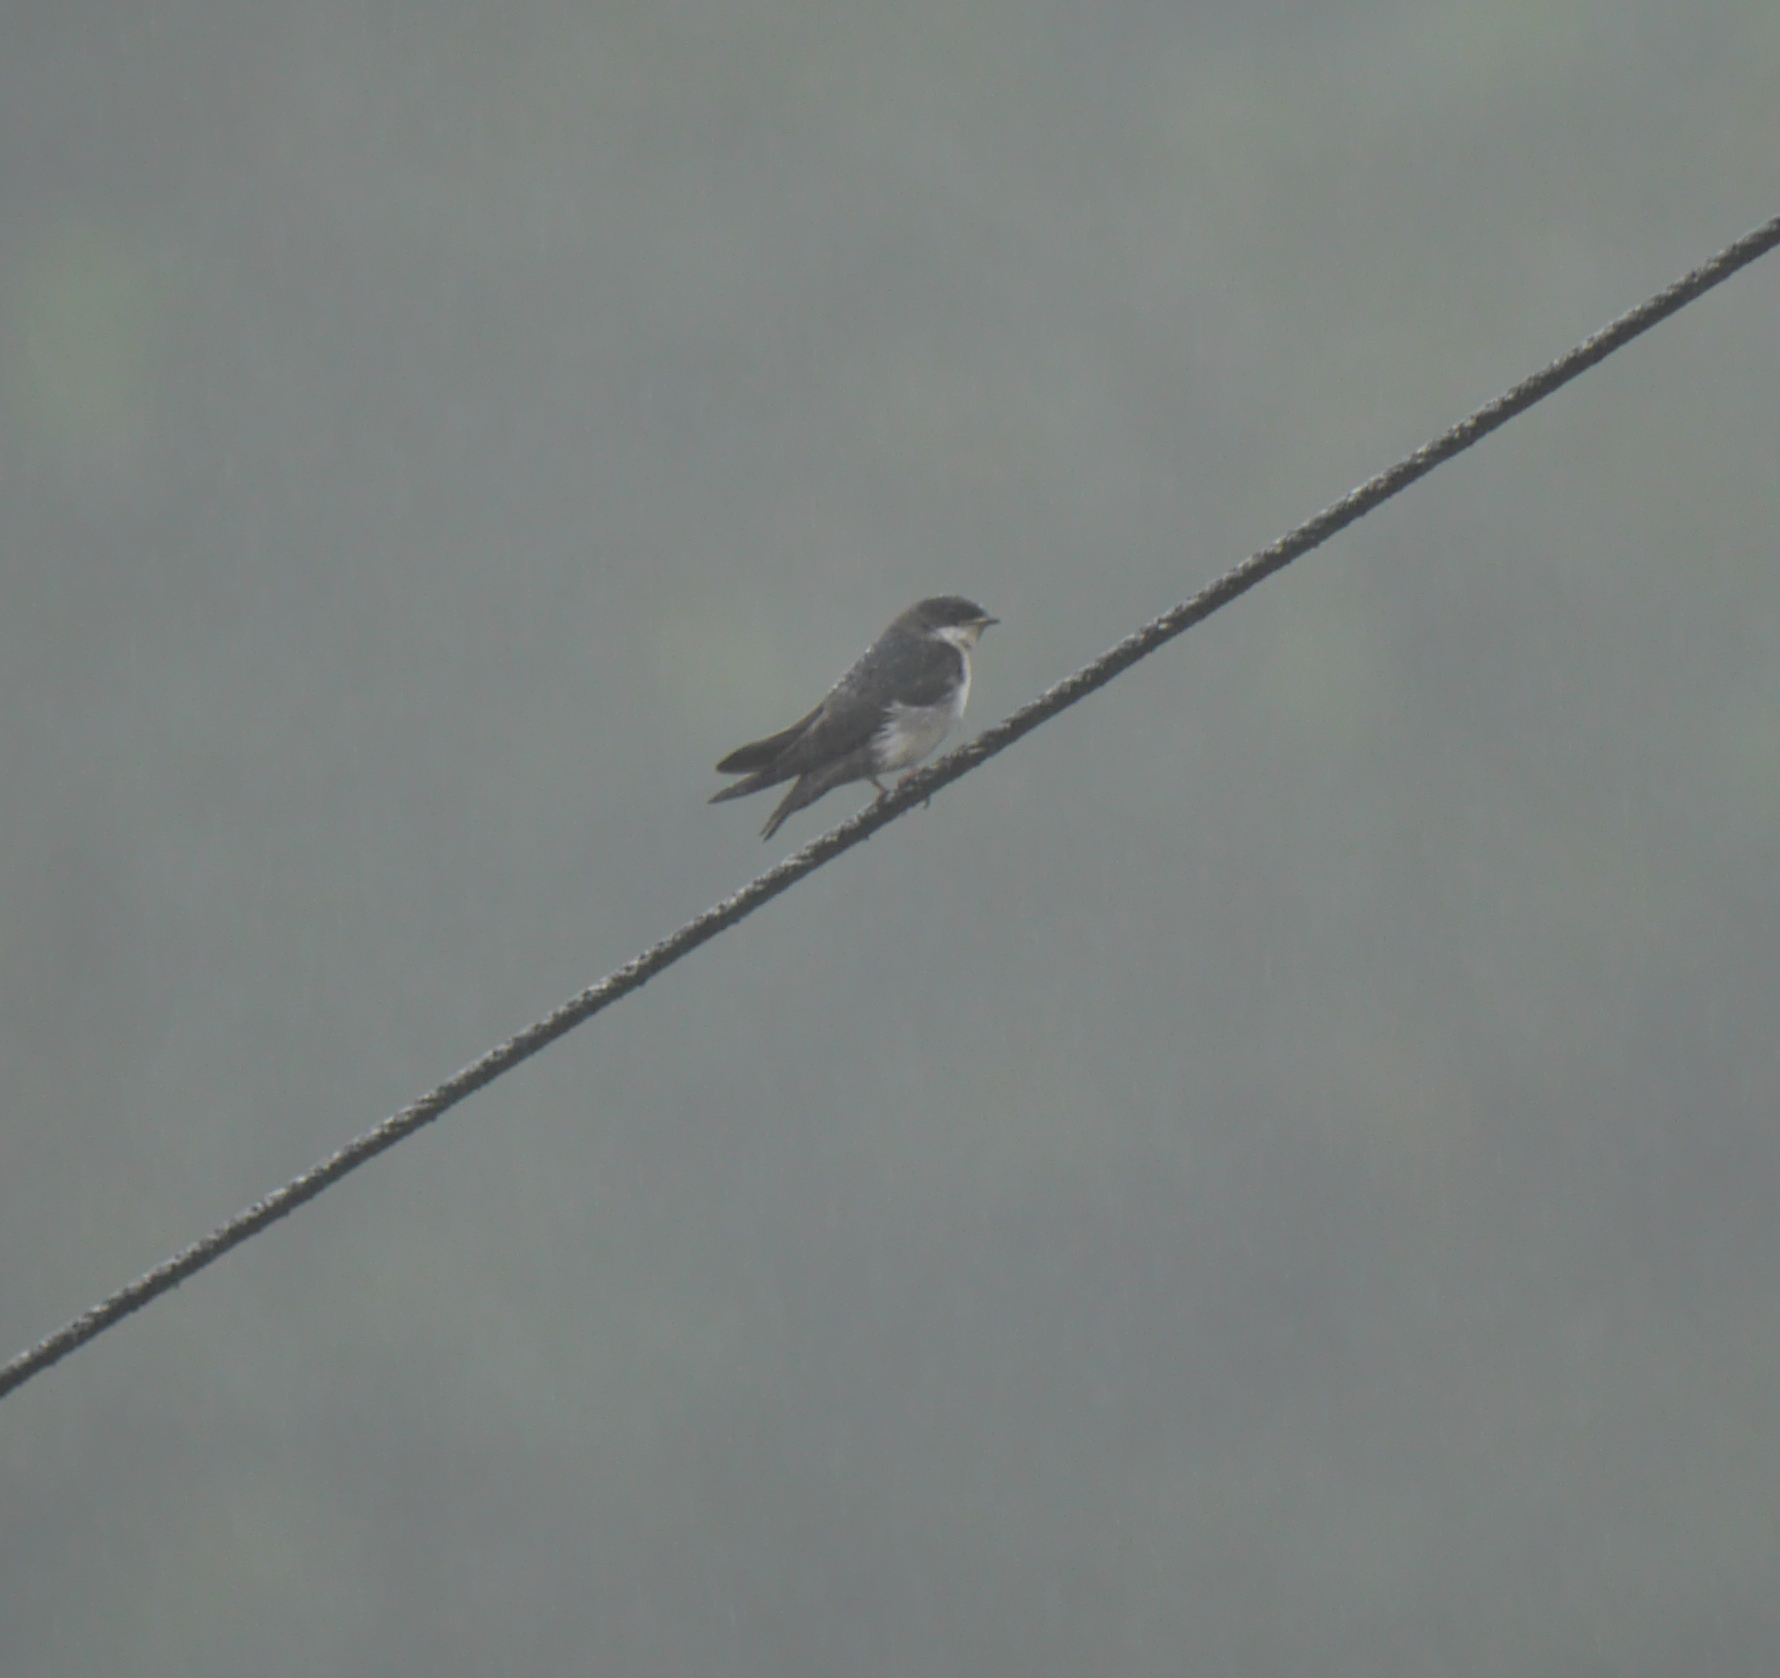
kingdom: Animalia
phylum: Chordata
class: Aves
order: Passeriformes
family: Hirundinidae
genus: Notiochelidon
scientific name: Notiochelidon cyanoleuca
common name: Blue-and-white swallow
